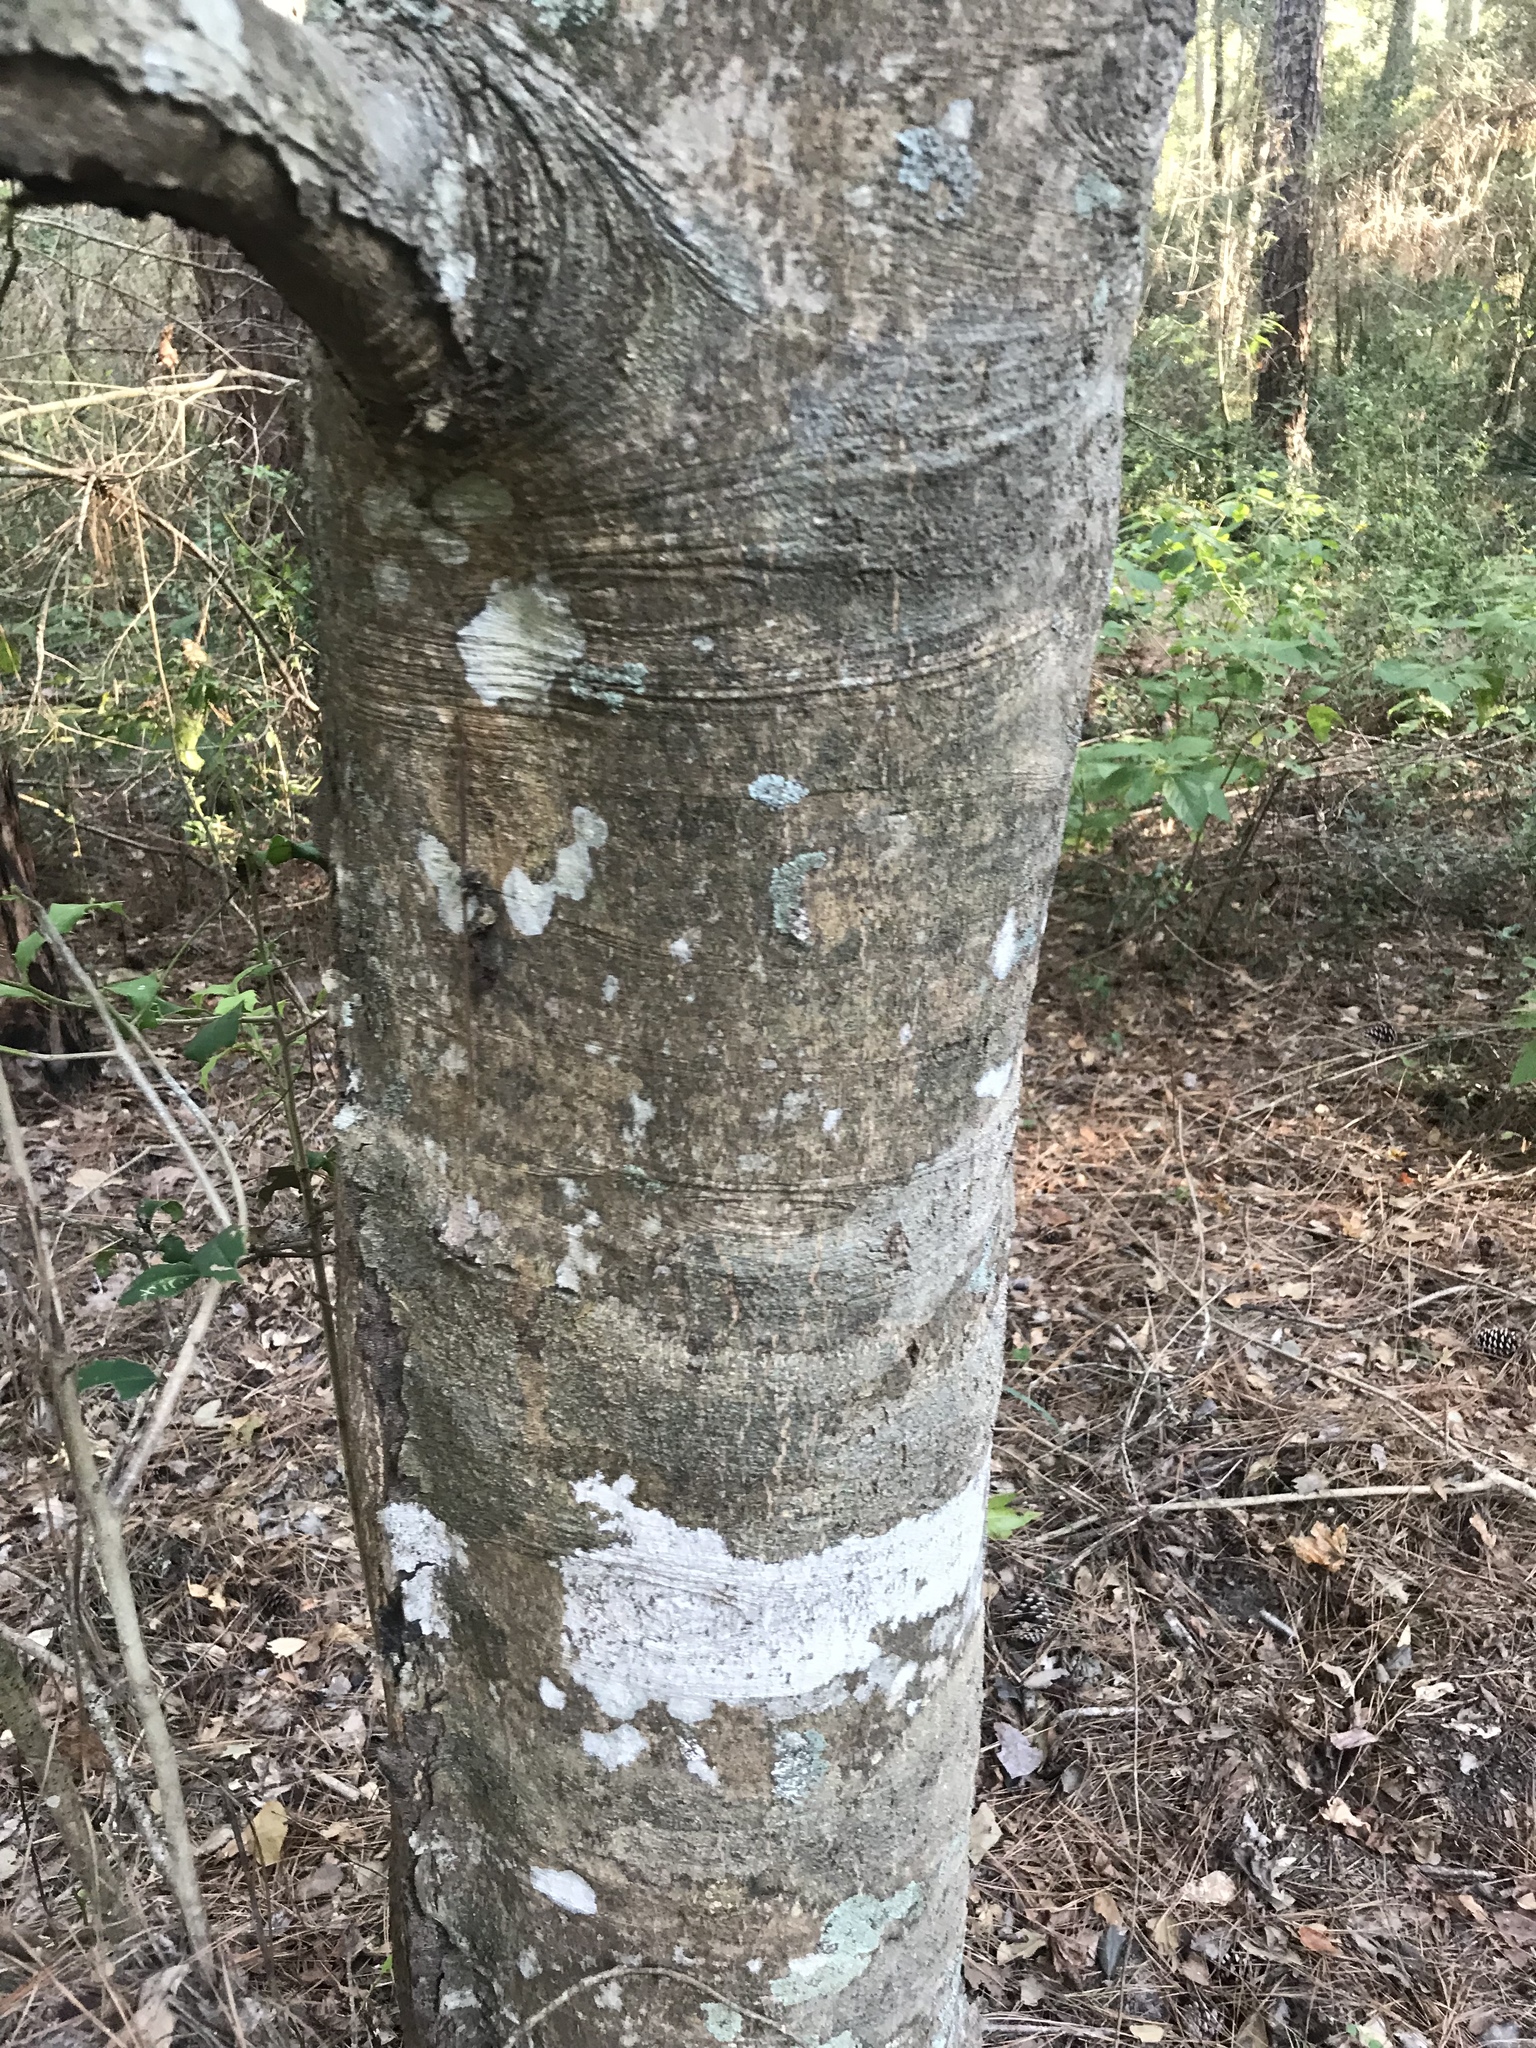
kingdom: Plantae
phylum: Tracheophyta
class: Magnoliopsida
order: Aquifoliales
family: Aquifoliaceae
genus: Ilex
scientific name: Ilex opaca
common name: American holly
